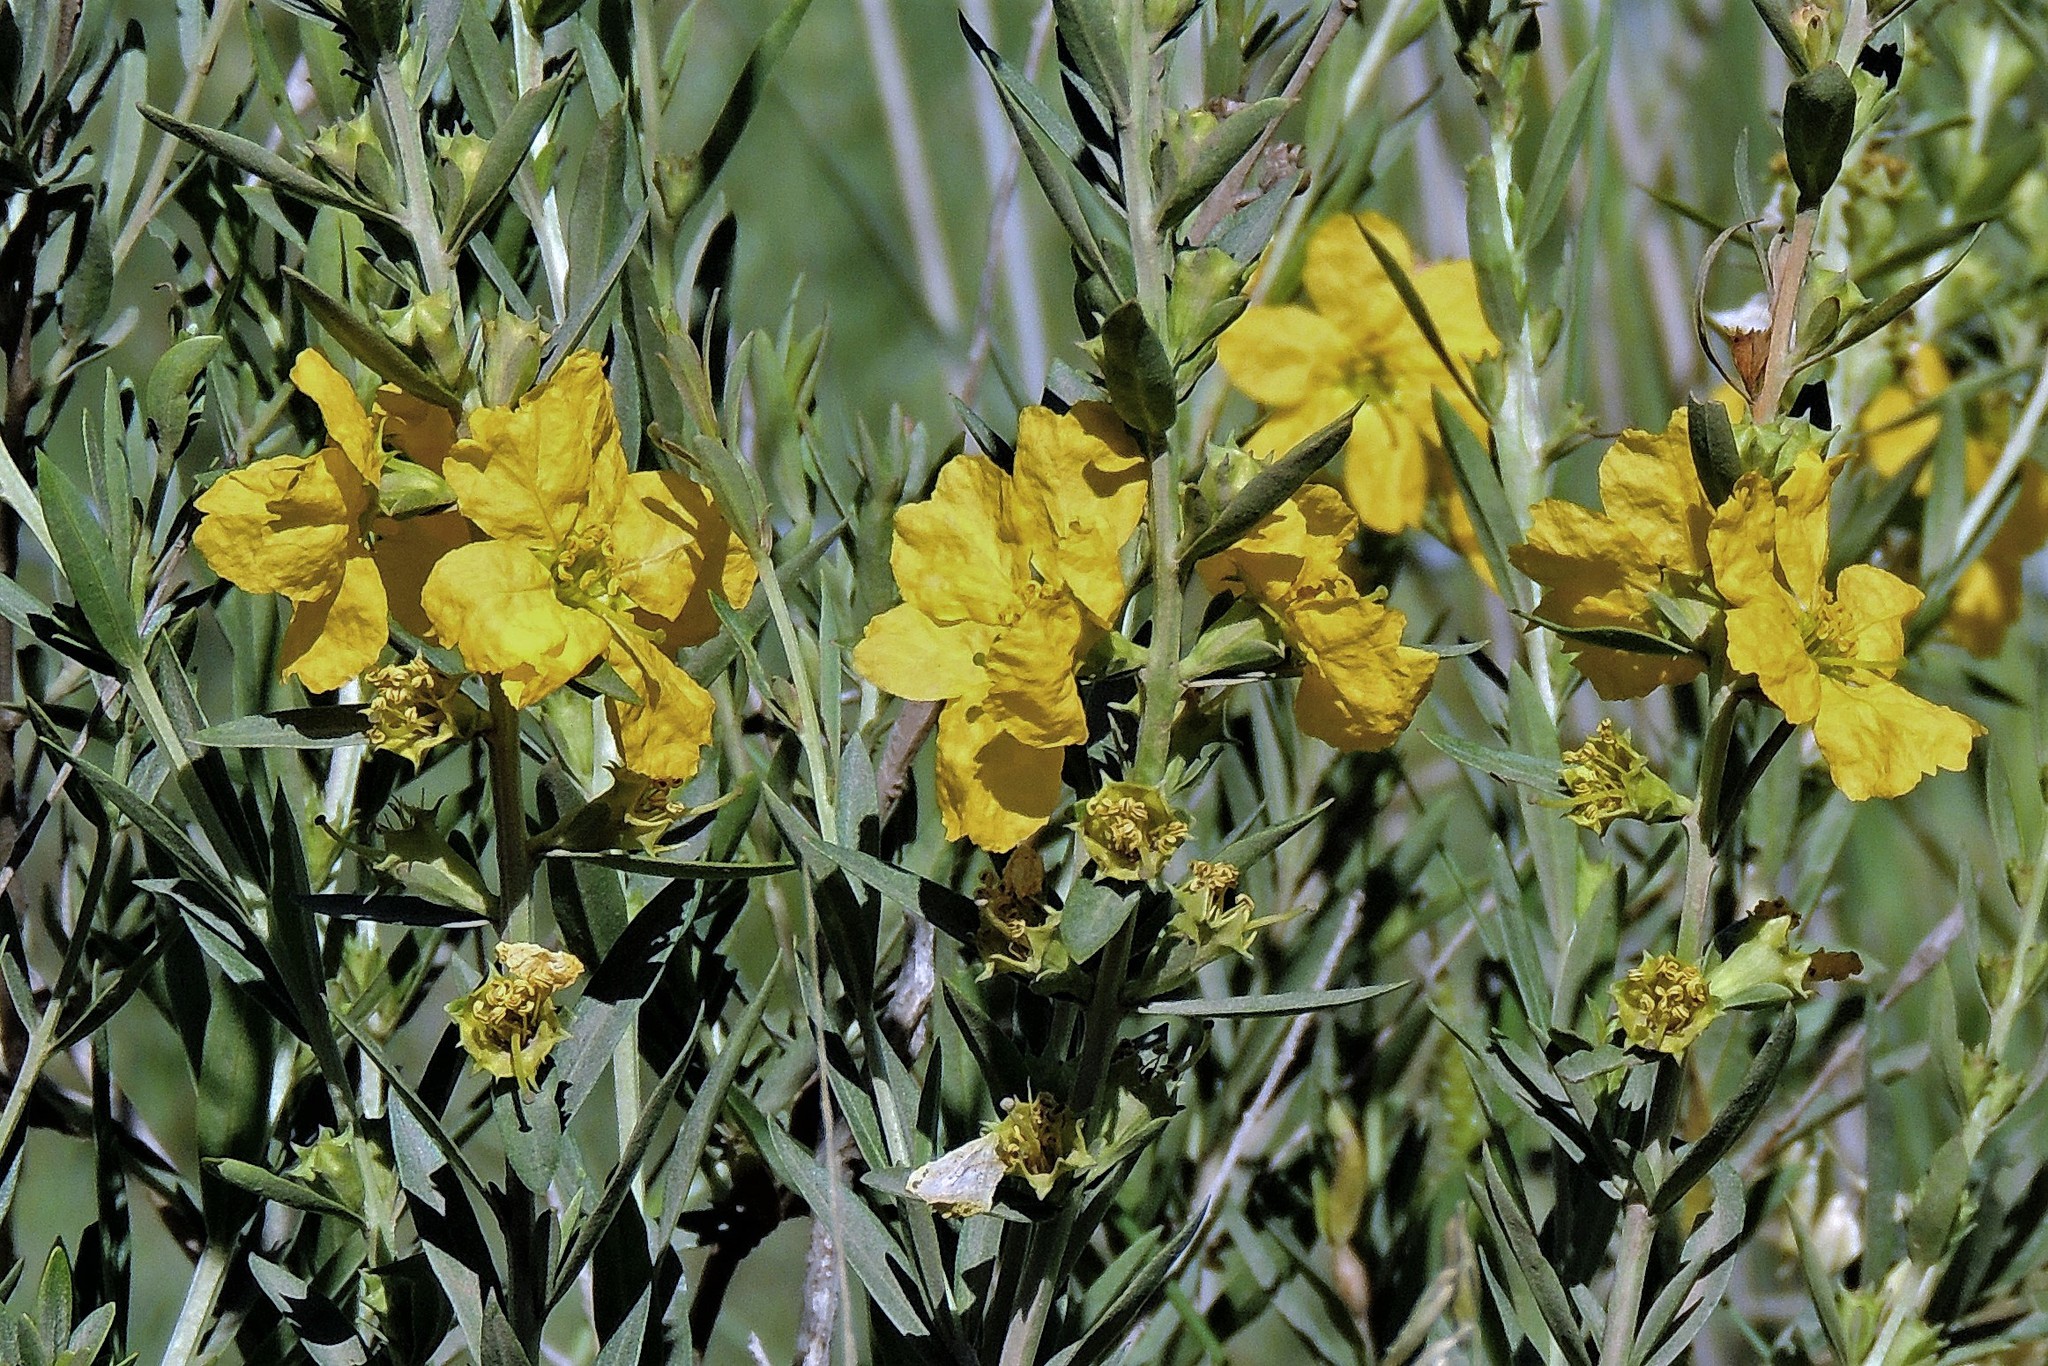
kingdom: Plantae
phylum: Tracheophyta
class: Magnoliopsida
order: Myrtales
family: Lythraceae
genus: Heimia
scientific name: Heimia salicifolia
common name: Willow-leaf heimia
